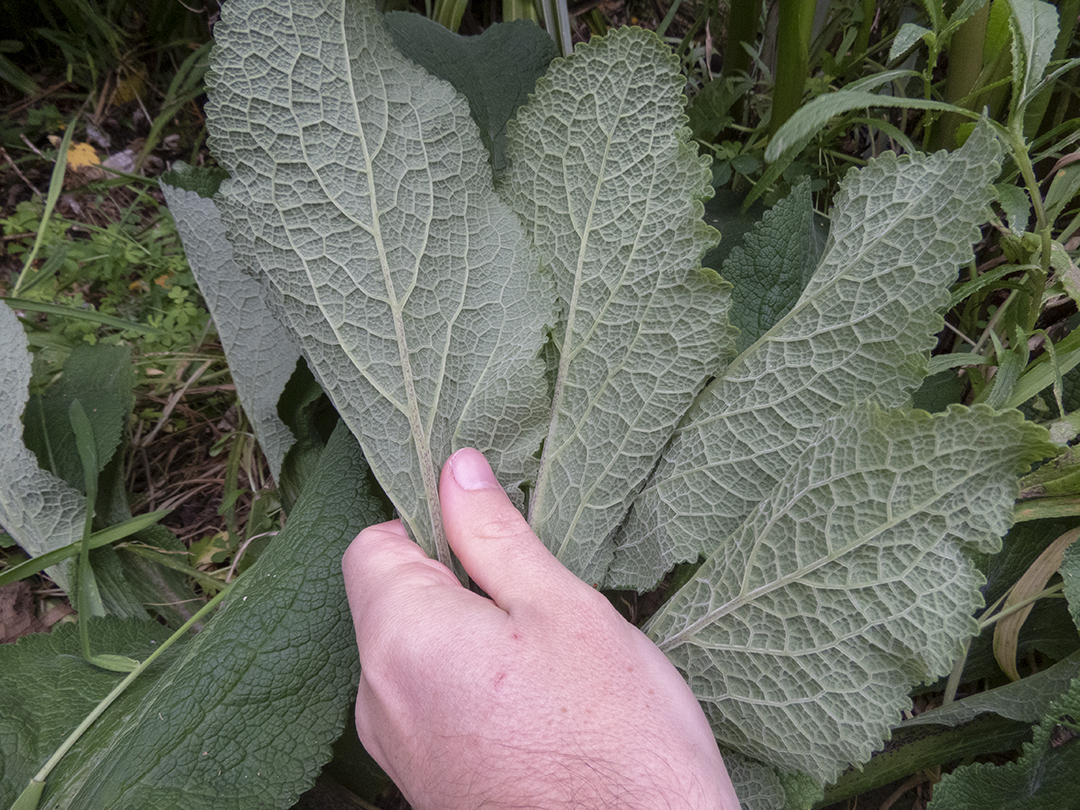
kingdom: Plantae
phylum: Tracheophyta
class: Magnoliopsida
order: Lamiales
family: Plantaginaceae
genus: Digitalis
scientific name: Digitalis purpurea
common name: Foxglove
